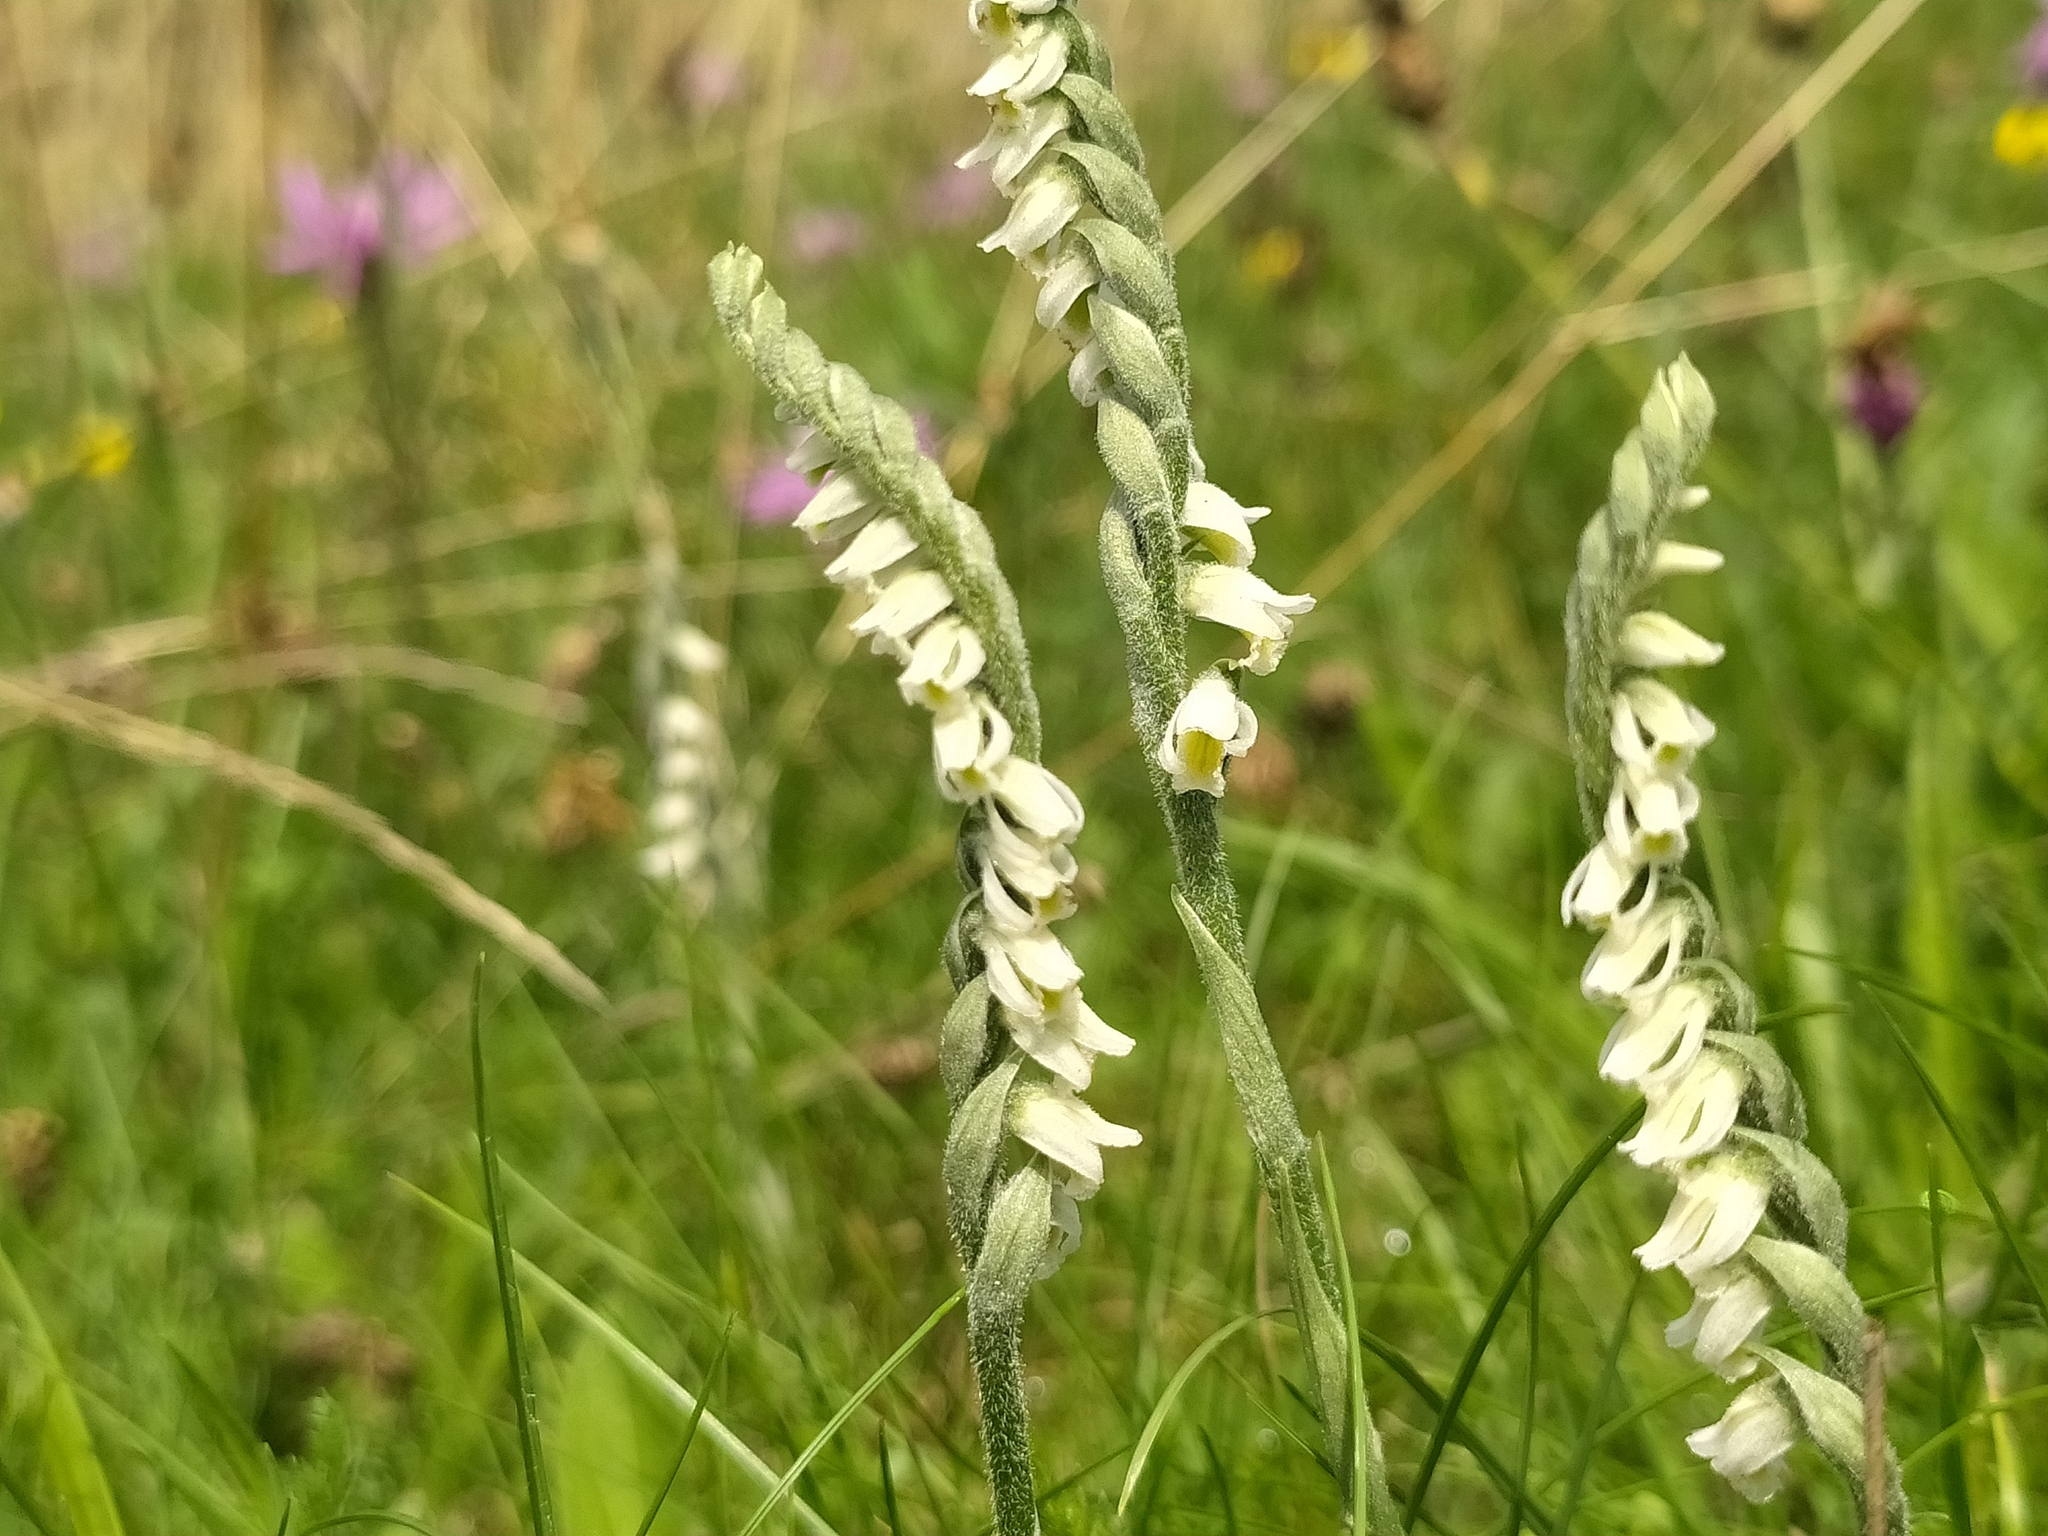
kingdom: Plantae
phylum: Tracheophyta
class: Liliopsida
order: Asparagales
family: Orchidaceae
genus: Spiranthes
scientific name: Spiranthes spiralis
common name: Autumn lady's-tresses
